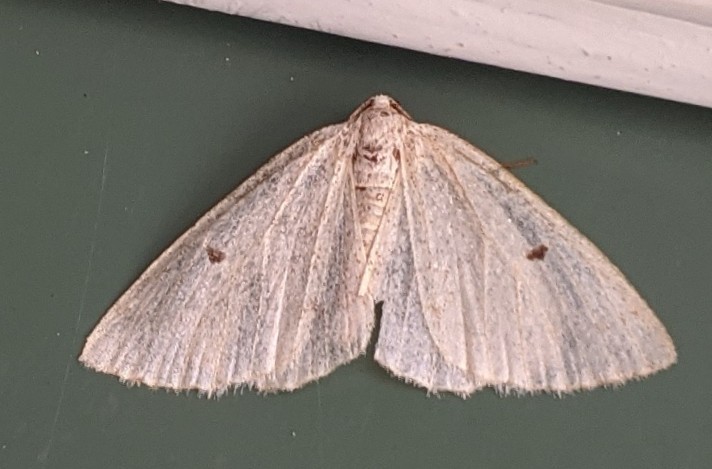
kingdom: Animalia
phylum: Arthropoda
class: Insecta
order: Lepidoptera
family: Geometridae
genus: Lomographa
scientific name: Lomographa glomeraria
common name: Gray spring moth
